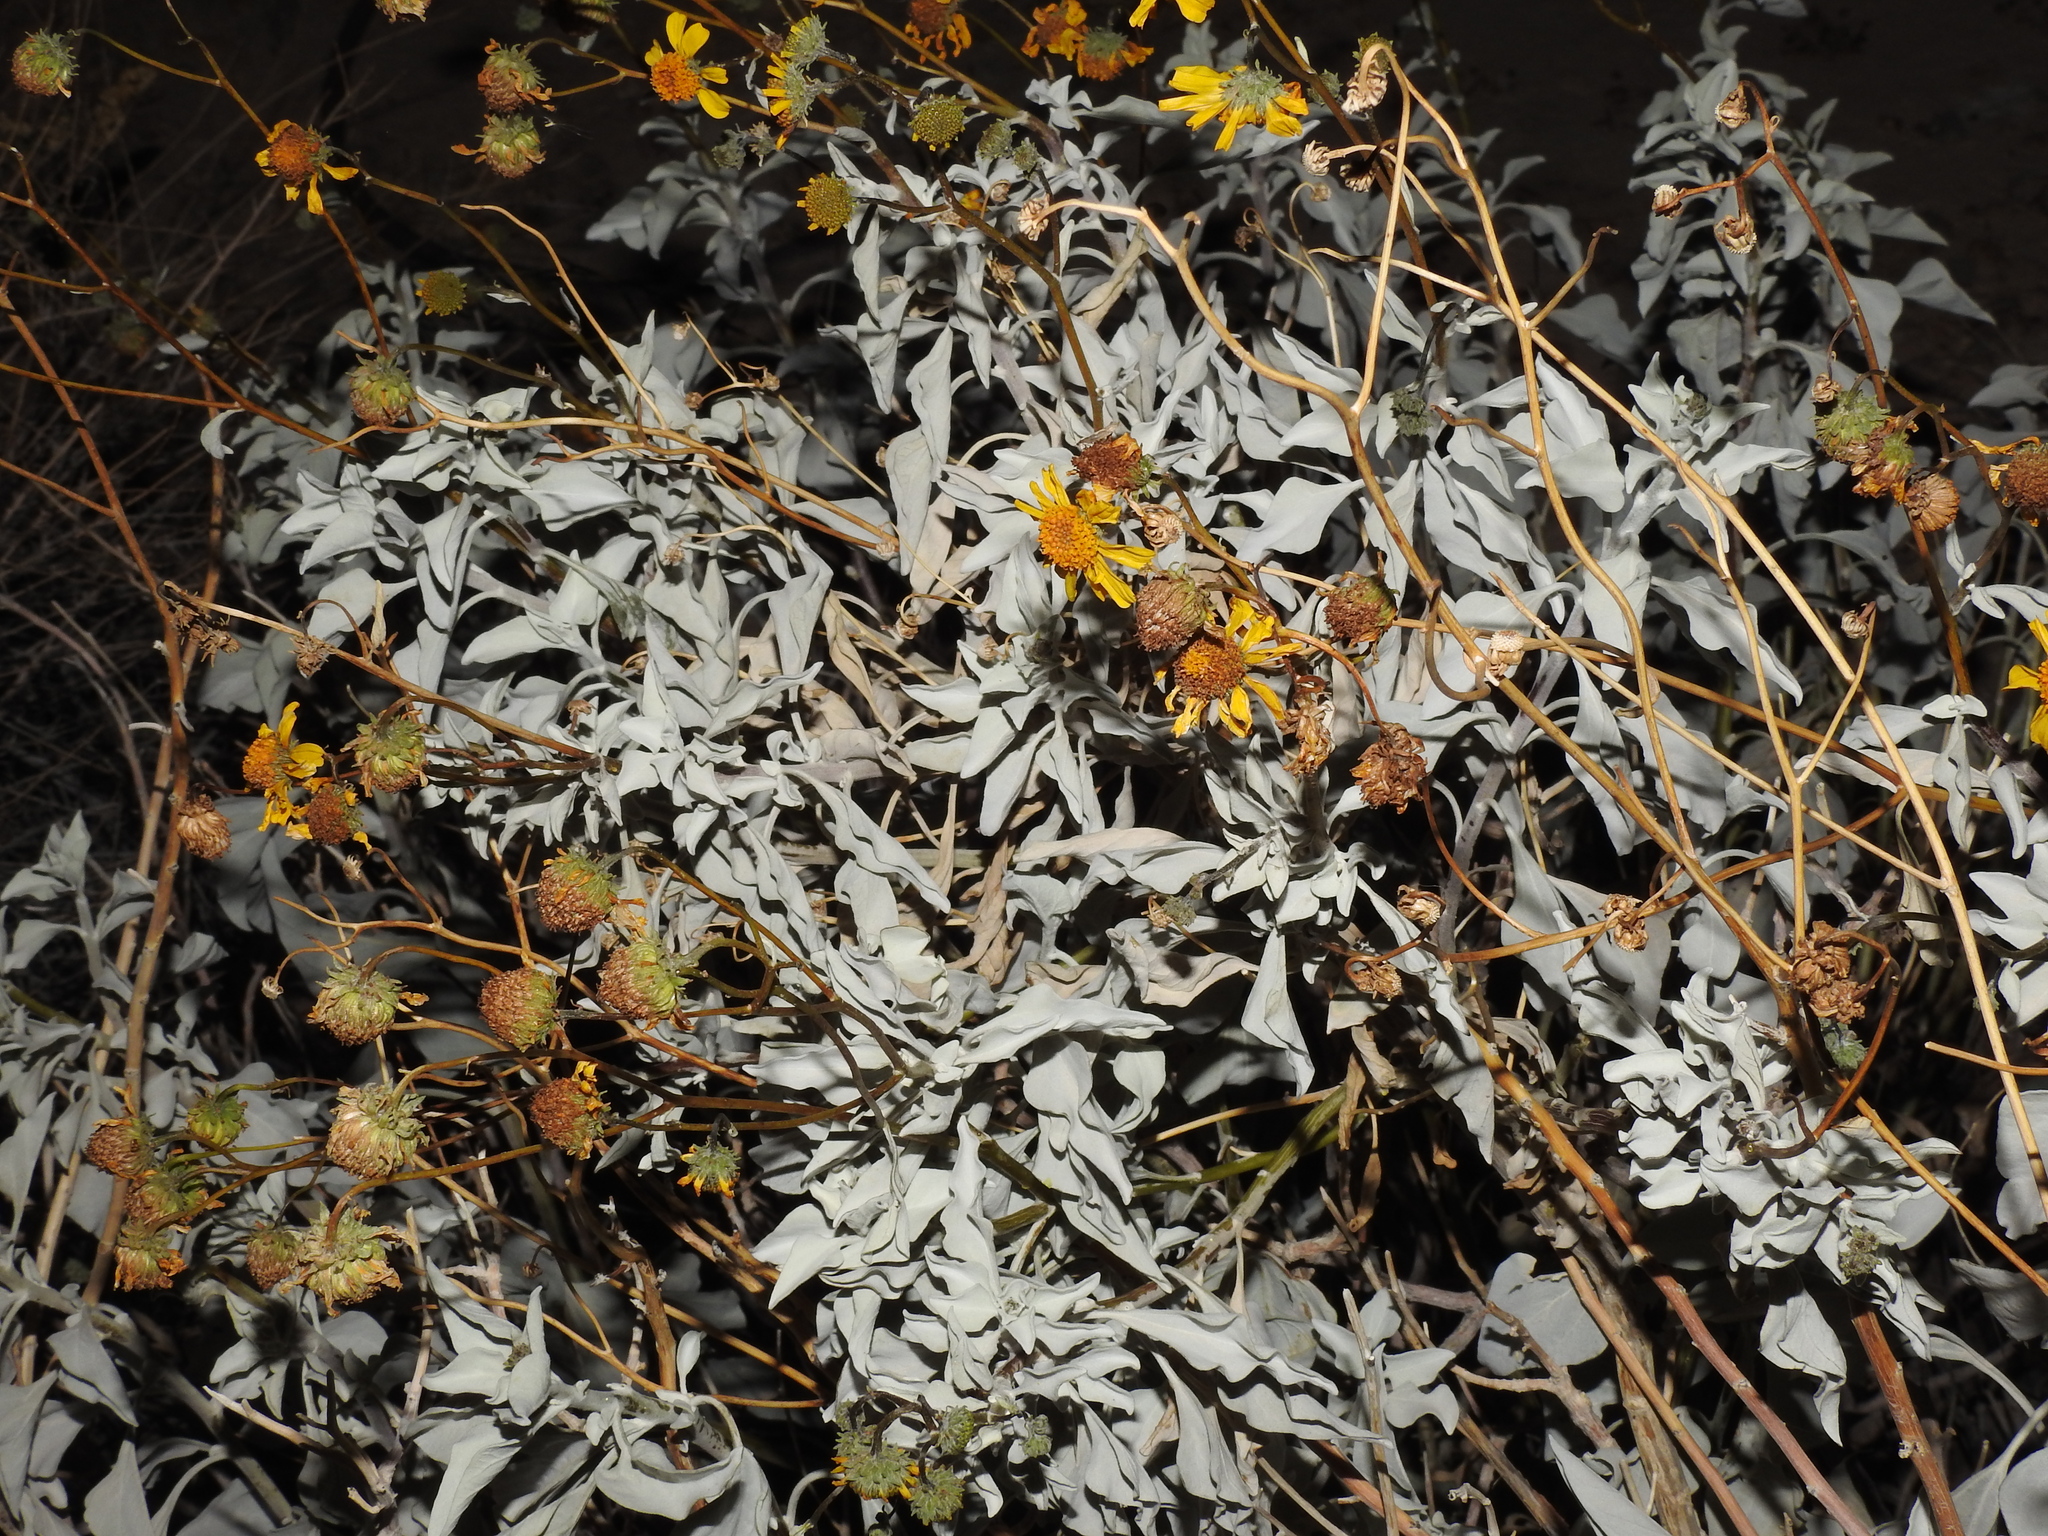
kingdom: Plantae
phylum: Tracheophyta
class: Magnoliopsida
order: Asterales
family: Asteraceae
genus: Encelia
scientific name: Encelia farinosa
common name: Brittlebush
